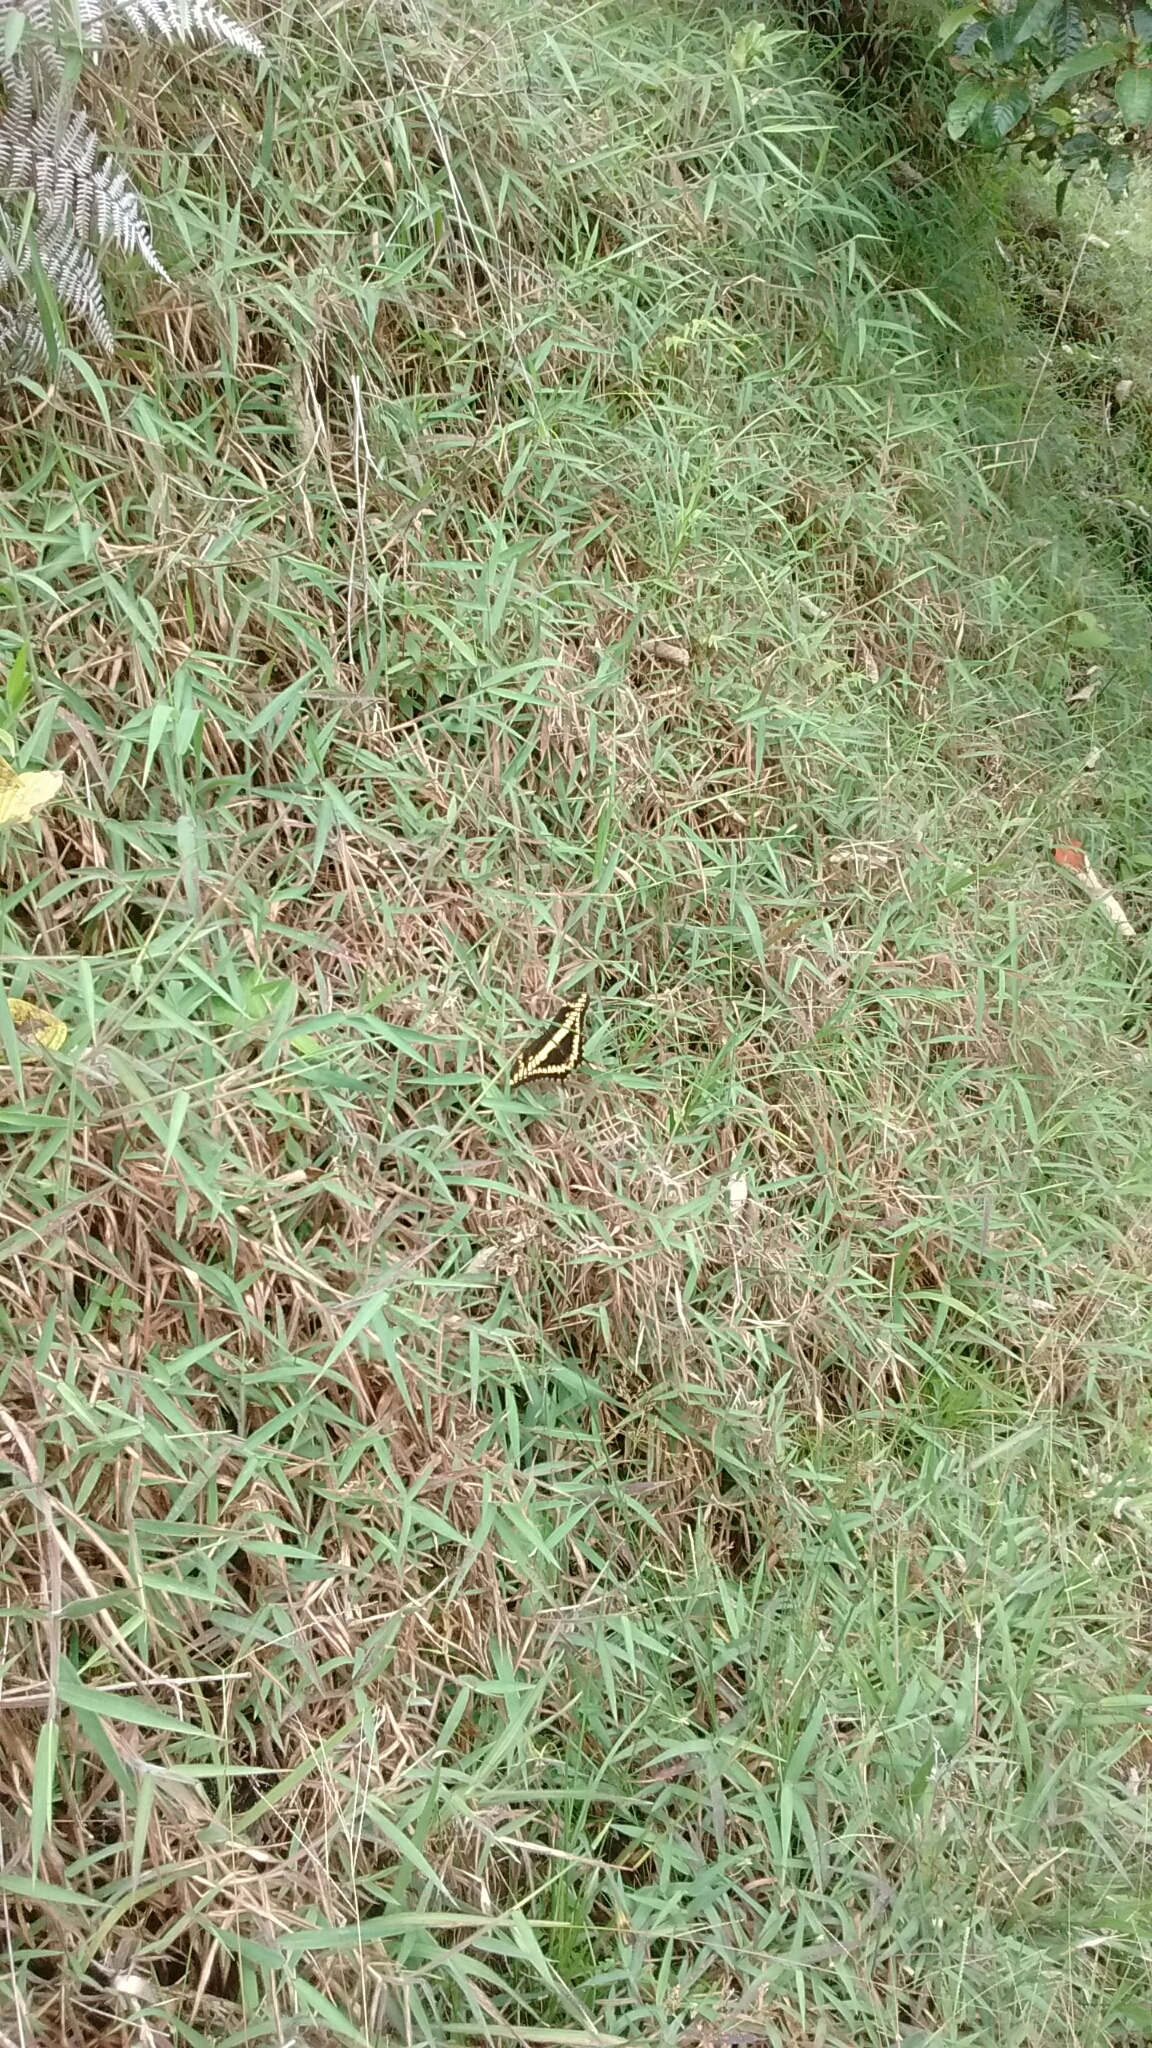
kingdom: Animalia
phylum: Arthropoda
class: Insecta
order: Lepidoptera
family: Papilionidae
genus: Papilio
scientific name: Papilio thoas
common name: King swallowtail
